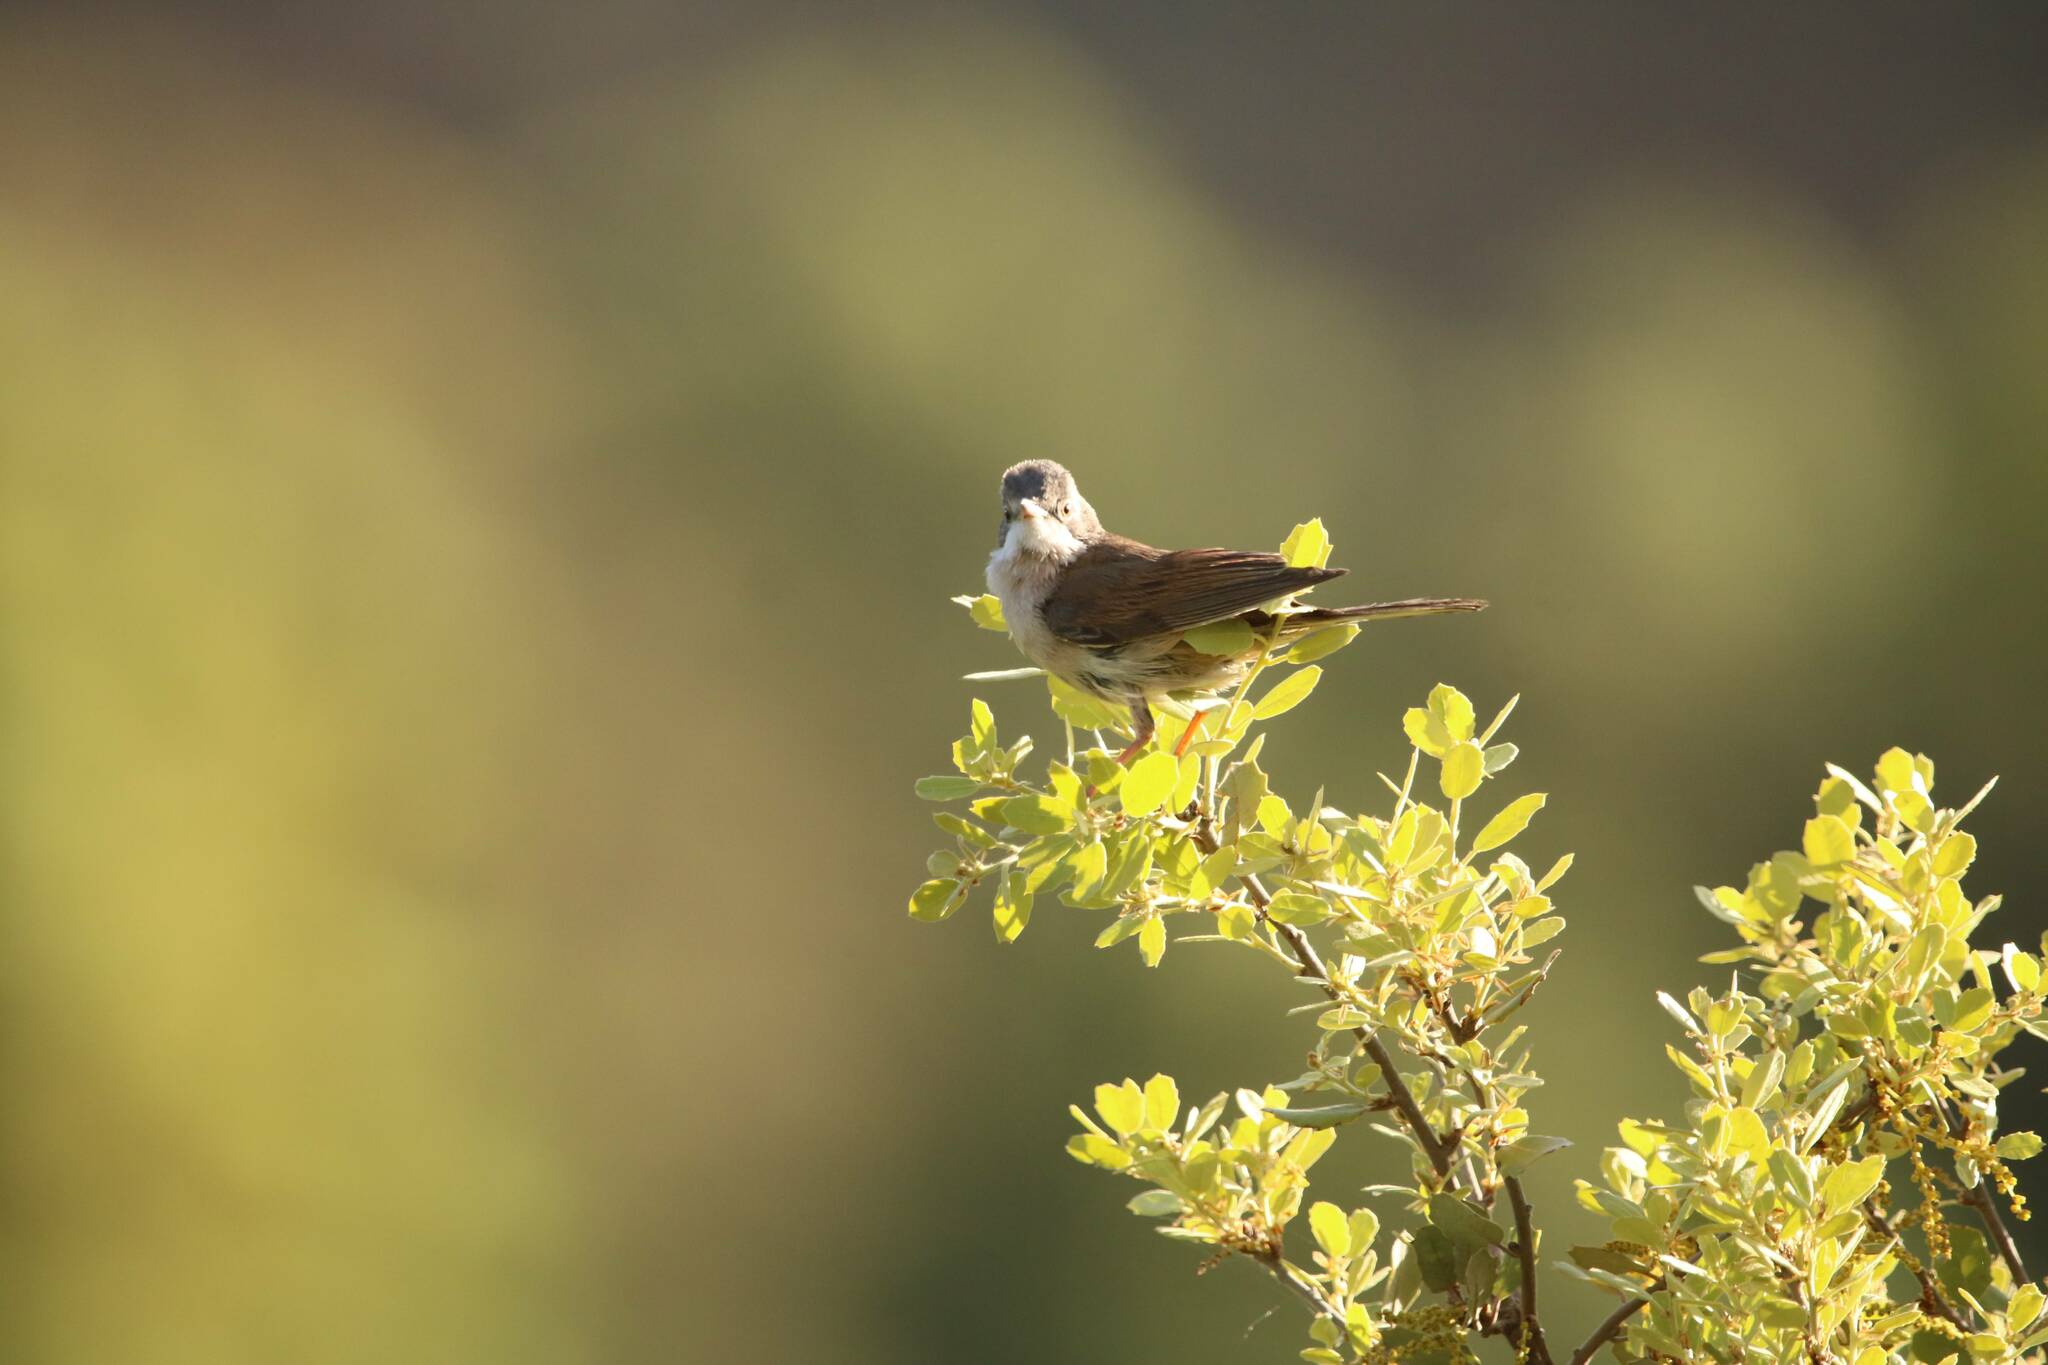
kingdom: Animalia
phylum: Chordata
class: Aves
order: Passeriformes
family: Sylviidae
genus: Sylvia
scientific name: Sylvia communis
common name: Common whitethroat
